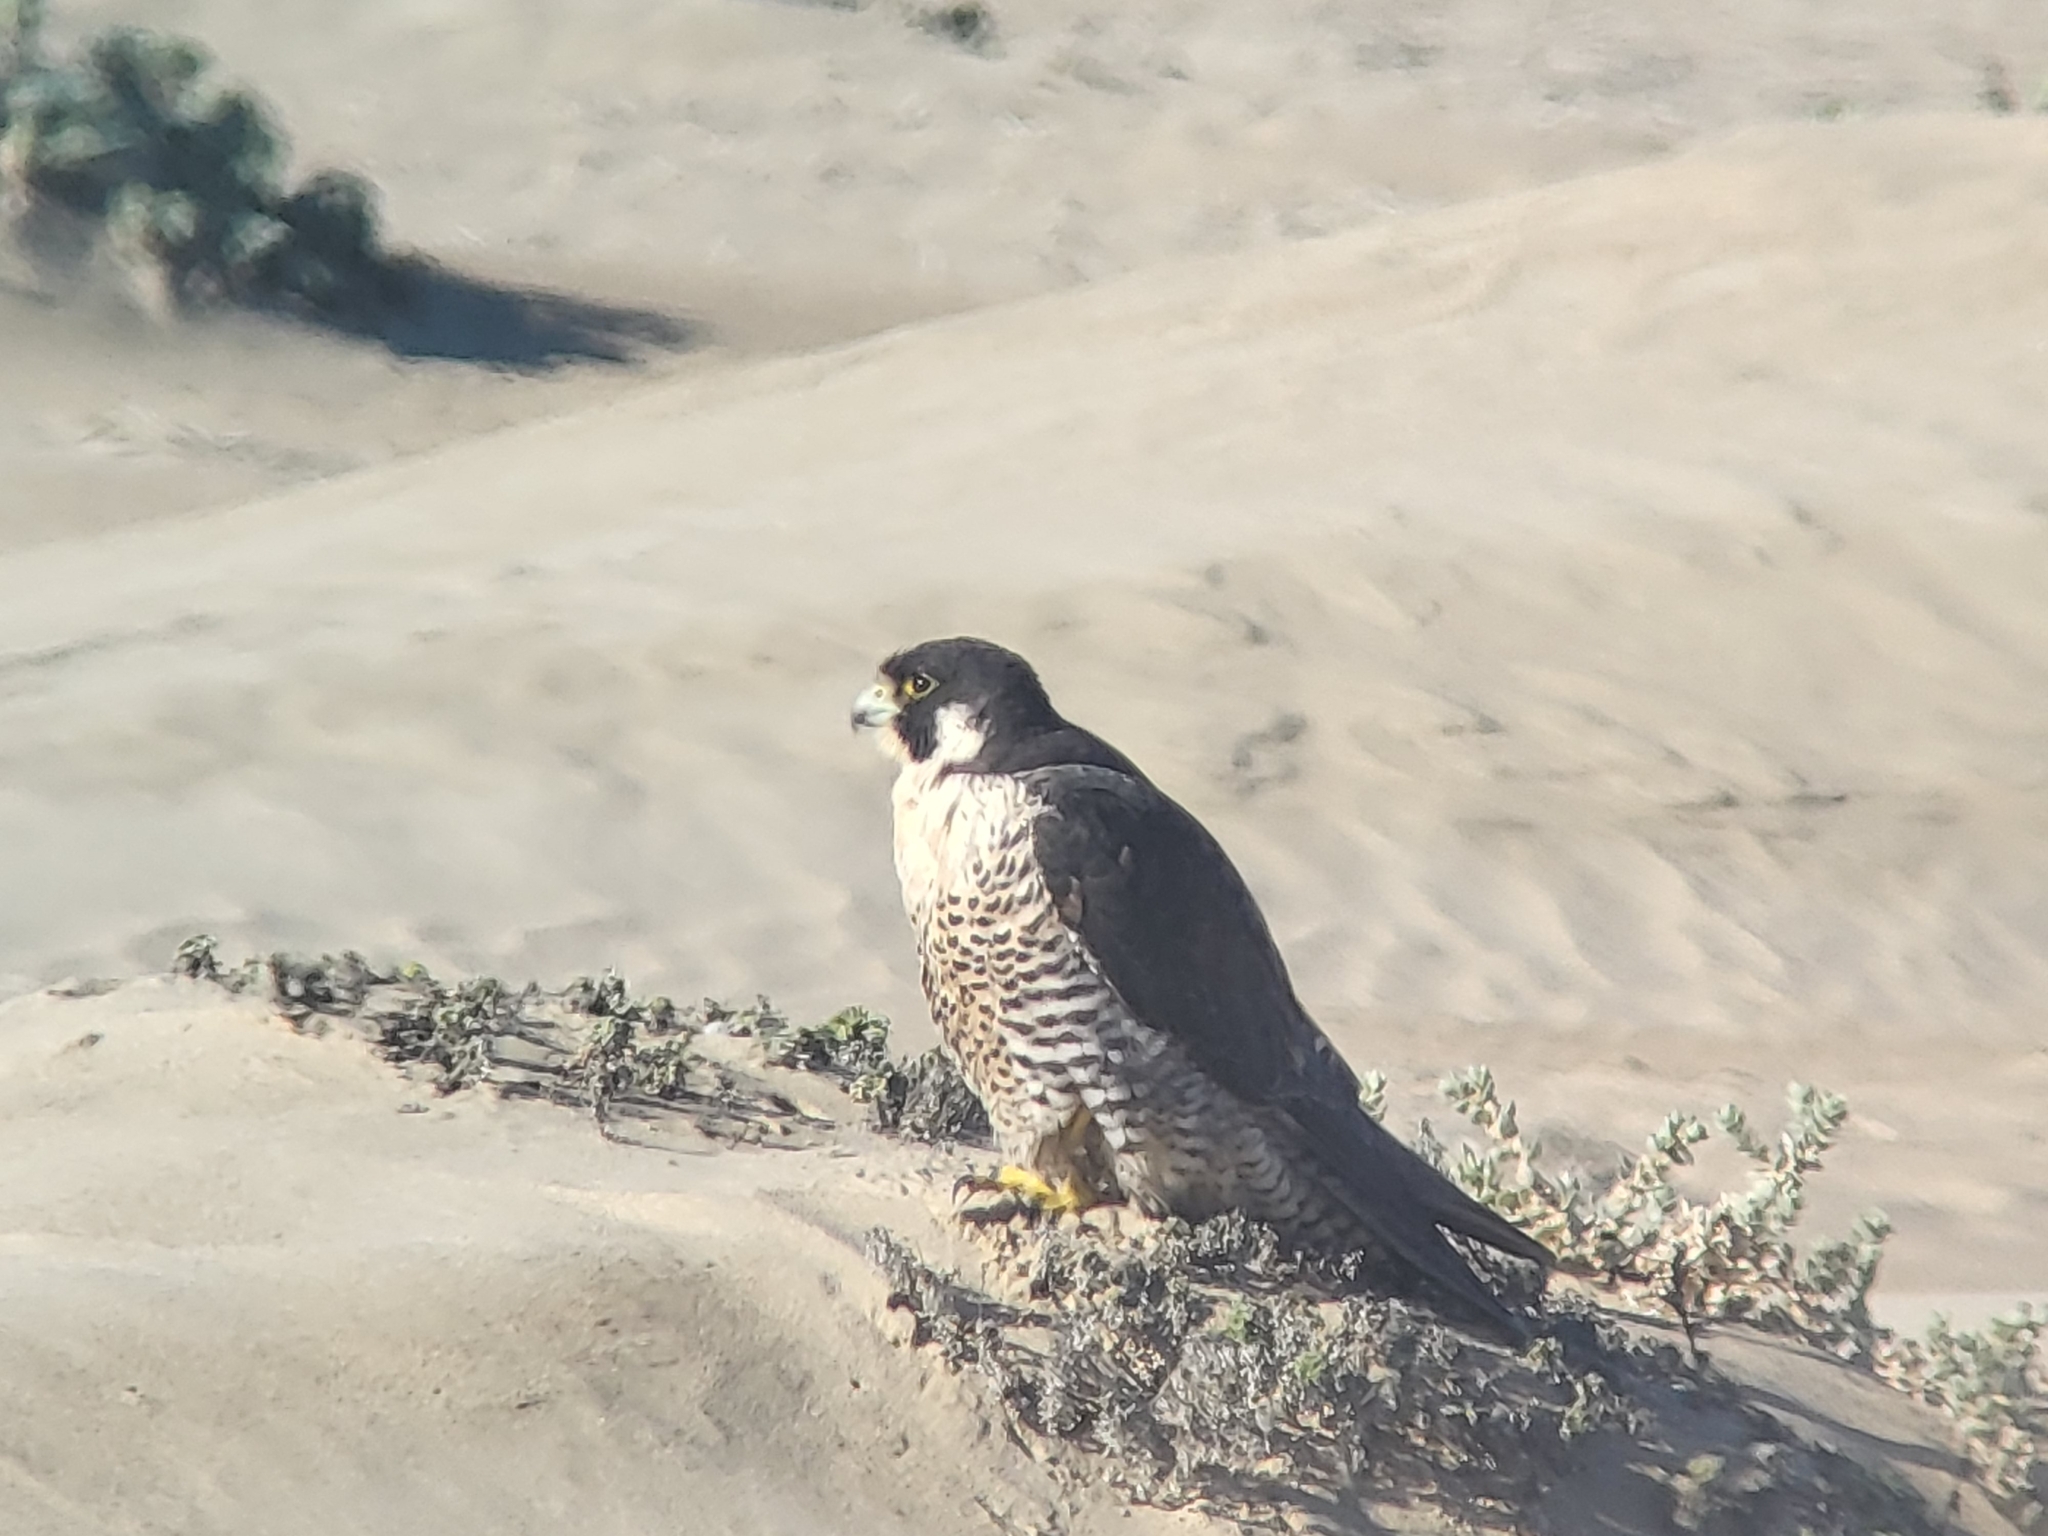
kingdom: Animalia
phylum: Chordata
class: Aves
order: Falconiformes
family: Falconidae
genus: Falco
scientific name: Falco peregrinus
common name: Peregrine falcon
